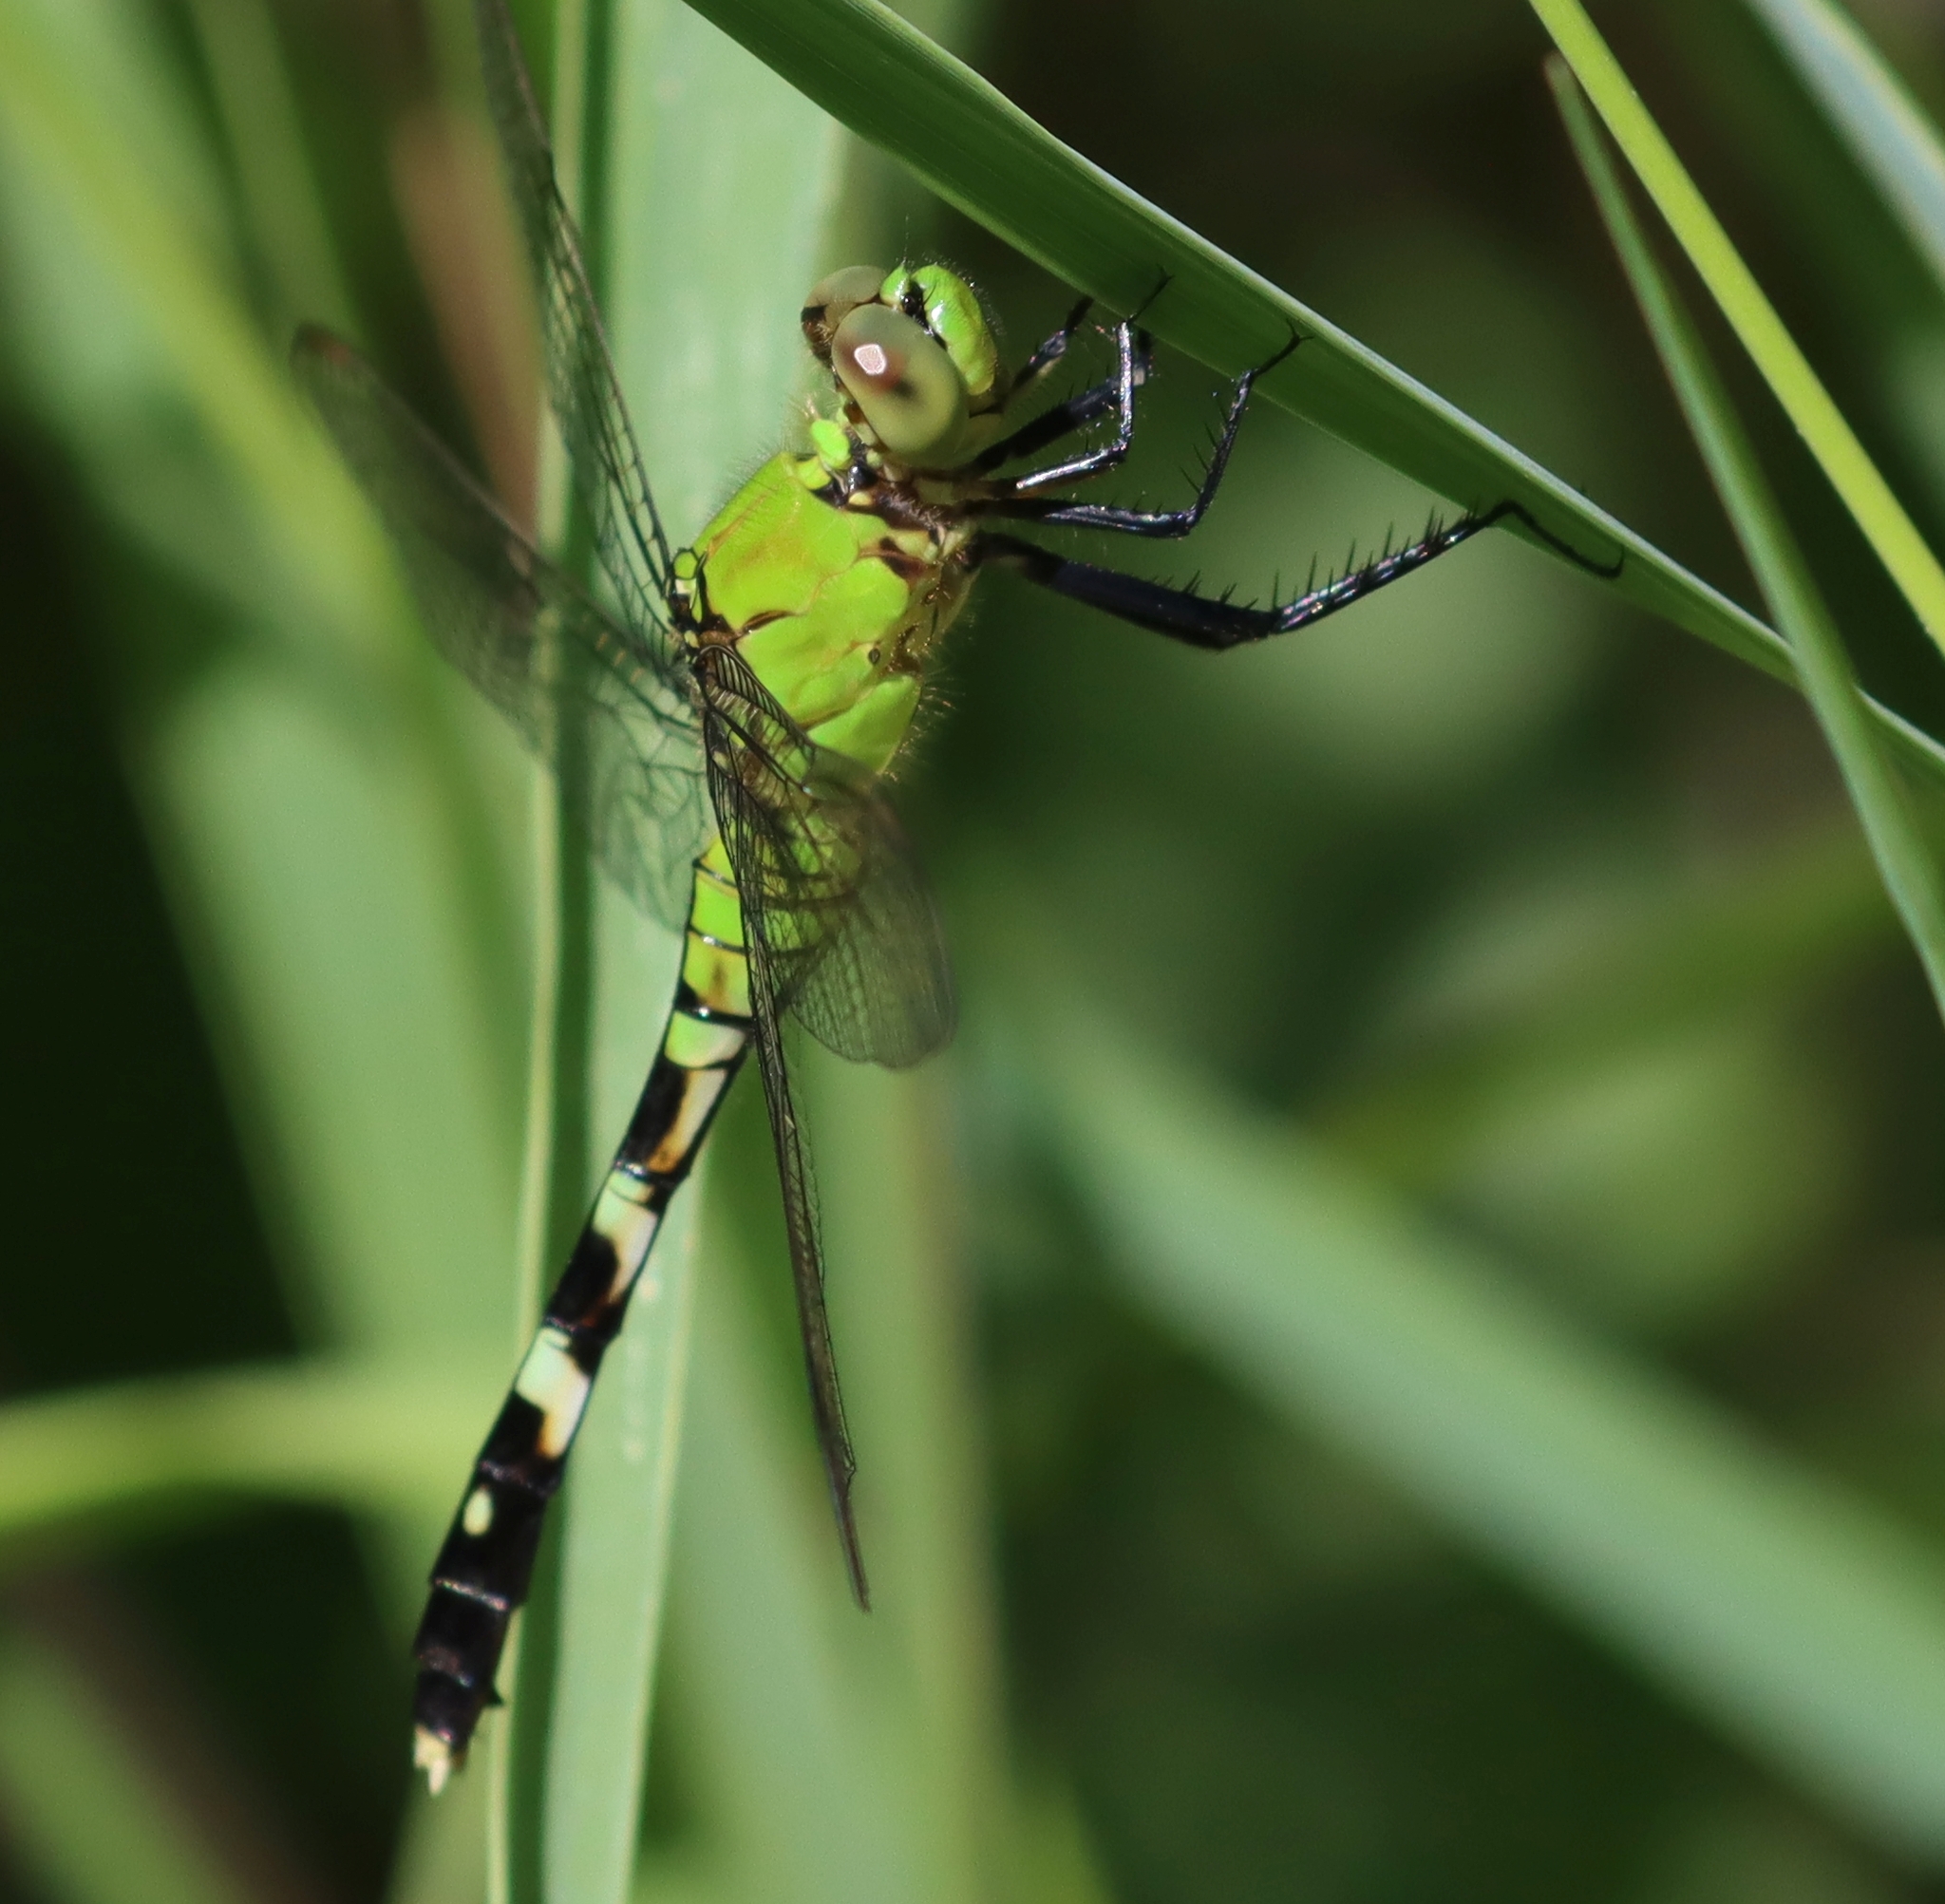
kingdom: Animalia
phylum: Arthropoda
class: Insecta
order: Odonata
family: Libellulidae
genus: Erythemis
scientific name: Erythemis simplicicollis
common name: Eastern pondhawk
